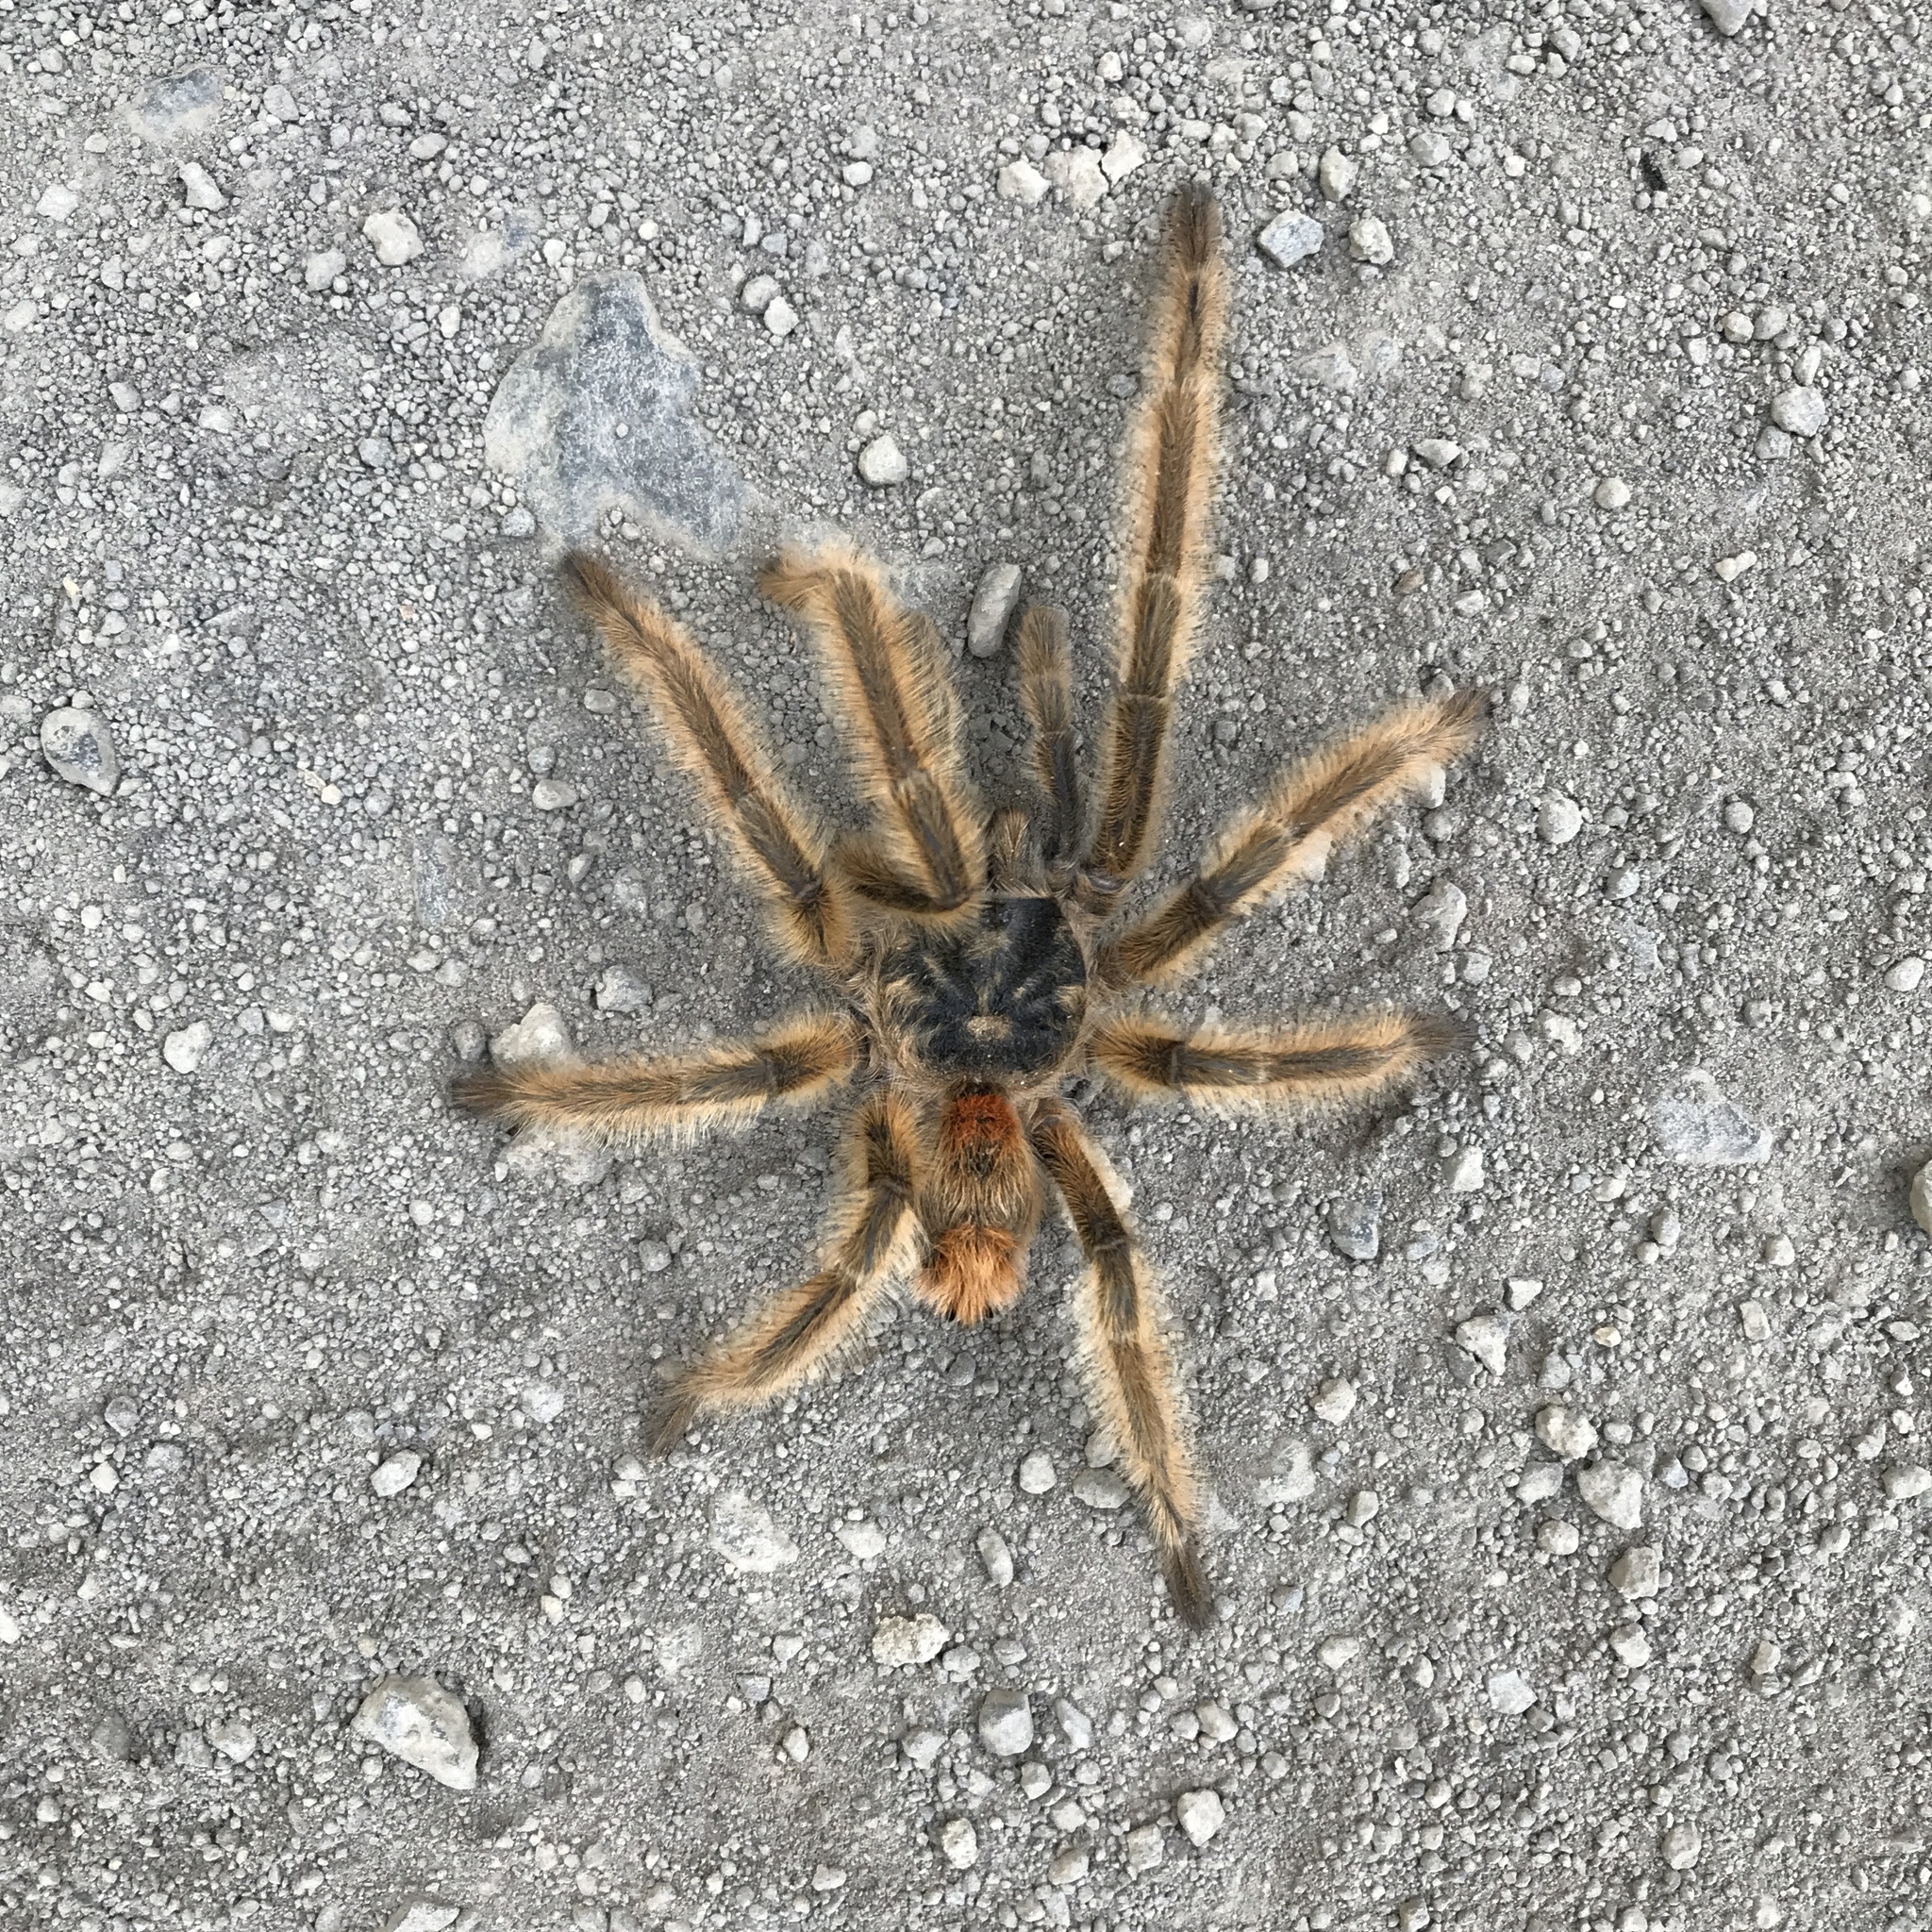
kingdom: Animalia
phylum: Arthropoda
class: Arachnida
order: Araneae
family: Theraphosidae
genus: Phrixotrichus
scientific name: Phrixotrichus vulpinus
